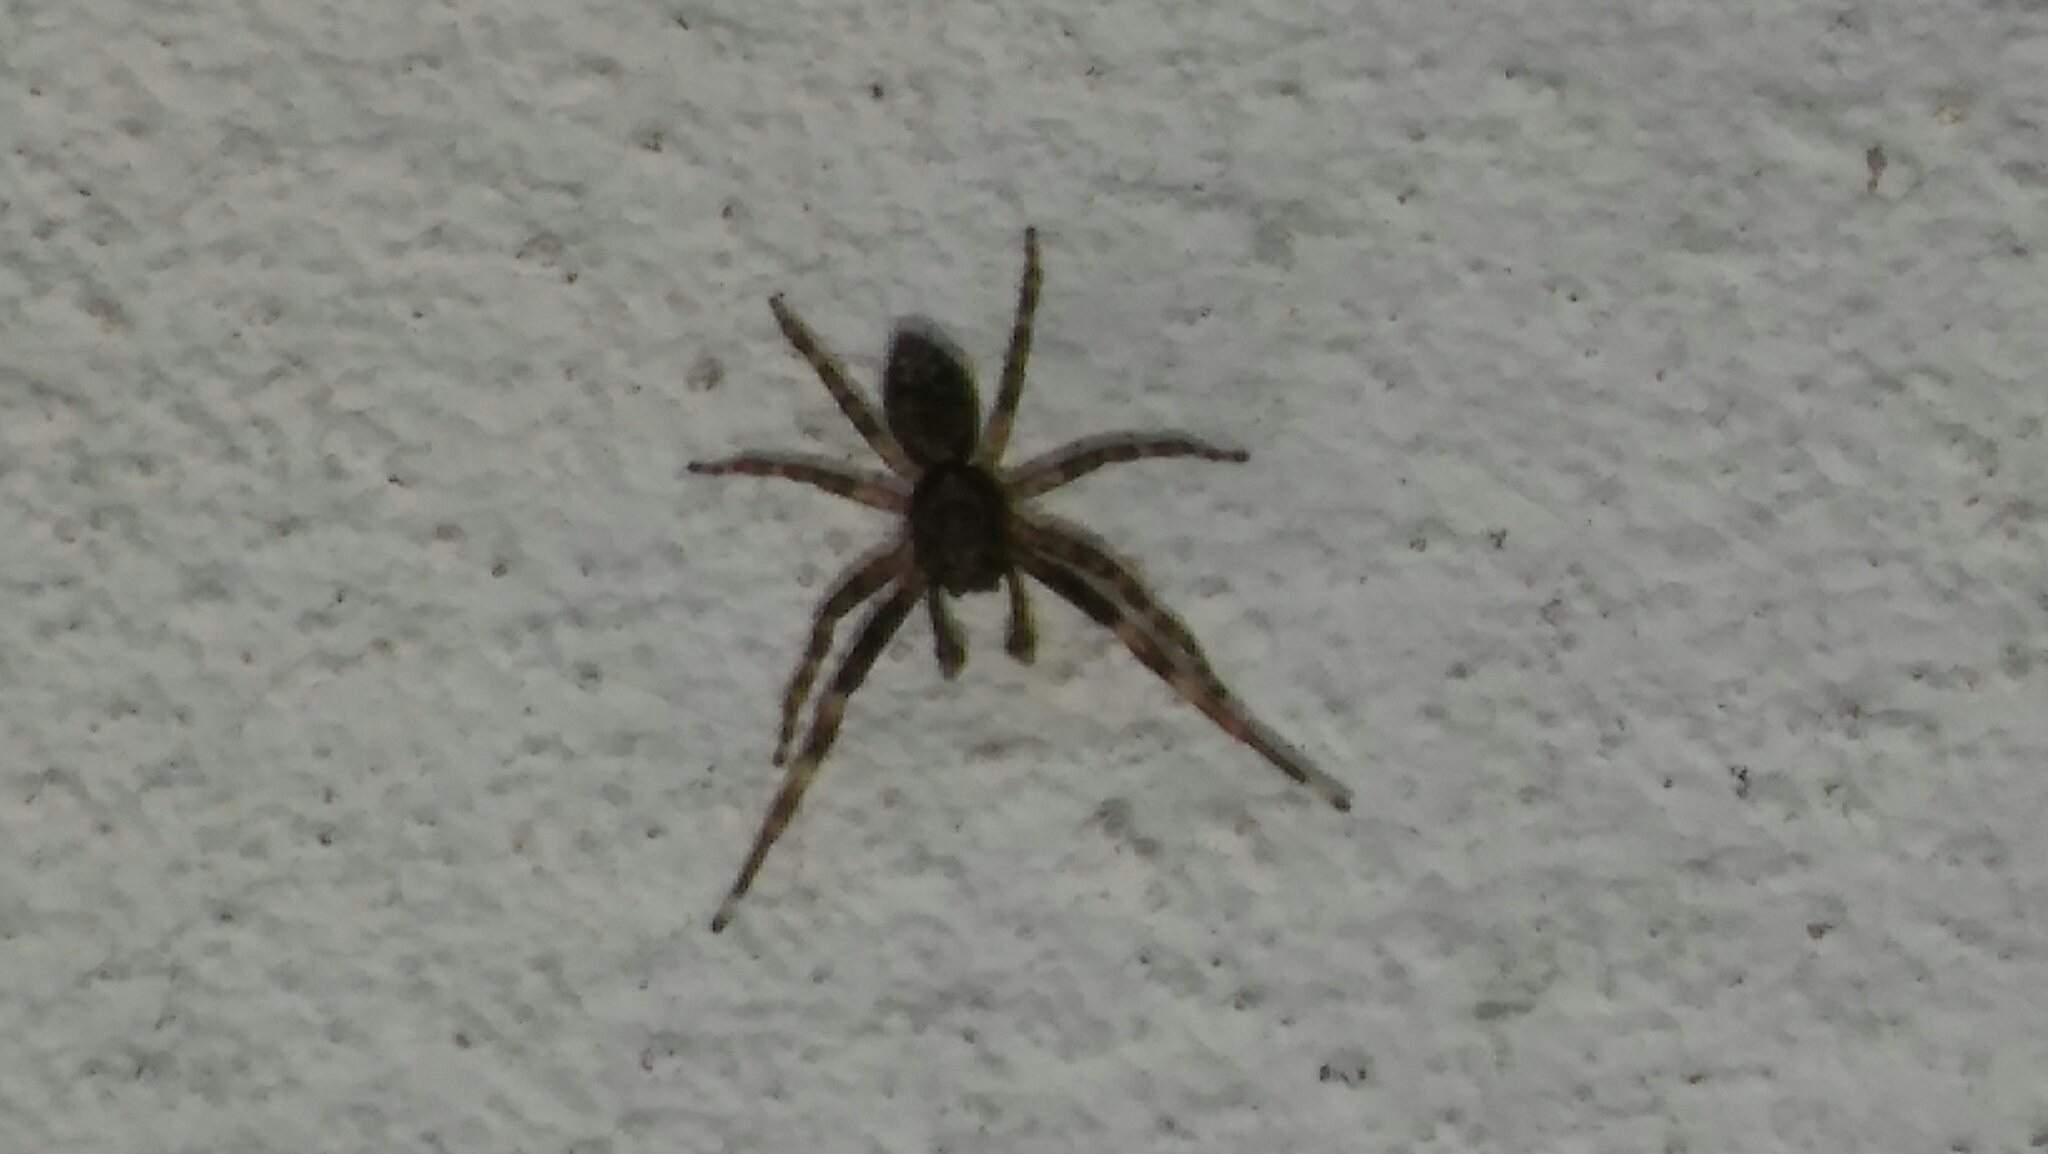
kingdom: Animalia
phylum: Arthropoda
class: Arachnida
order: Araneae
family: Salticidae
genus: Titanattus
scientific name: Titanattus andinus
